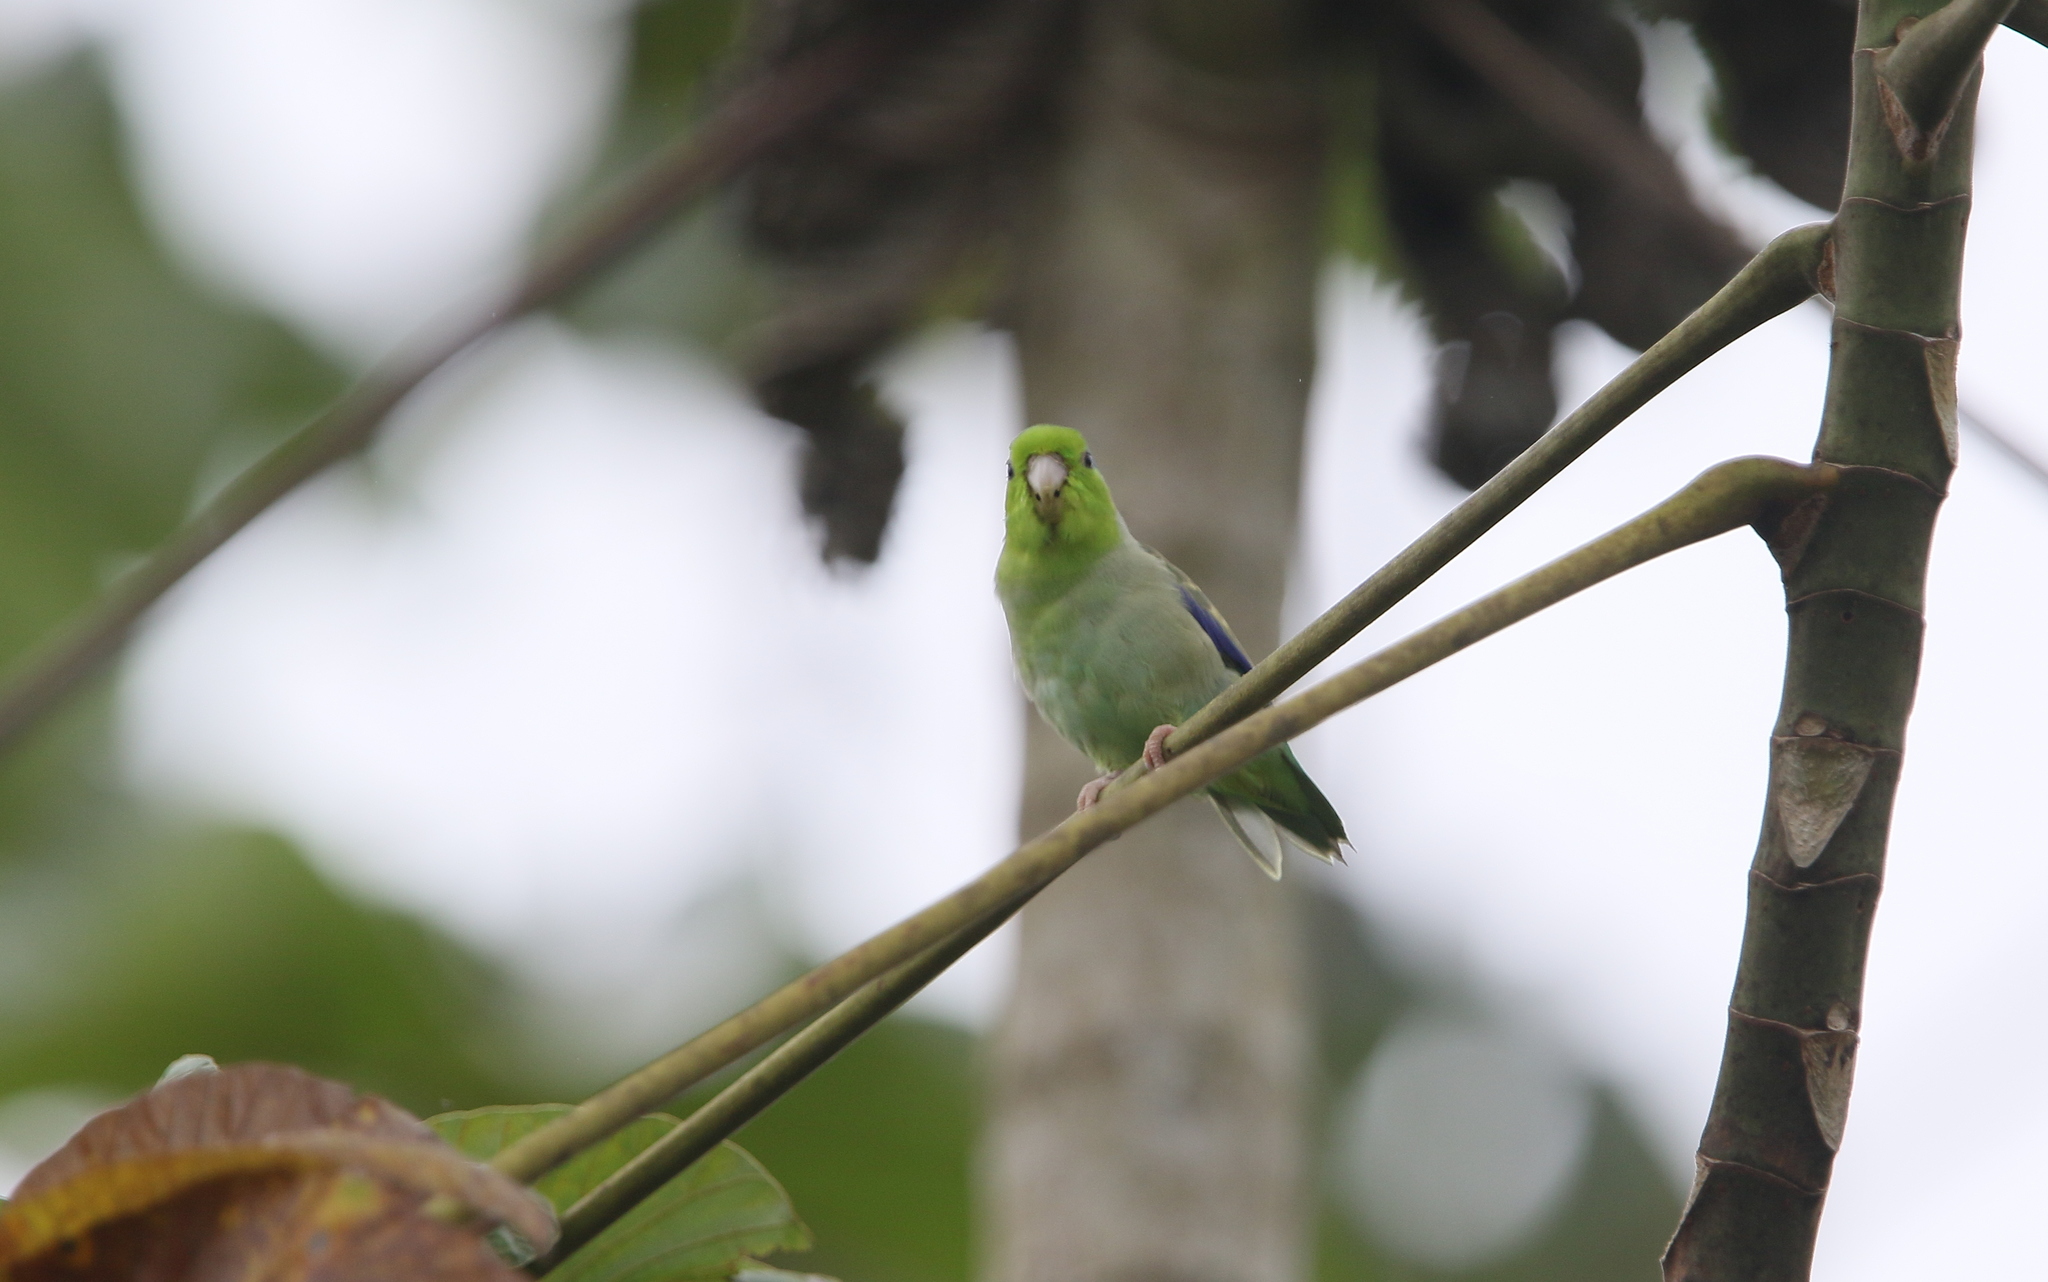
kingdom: Animalia
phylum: Chordata
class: Aves
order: Psittaciformes
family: Psittacidae
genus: Forpus
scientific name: Forpus coelestis
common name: Pacific parrotlet
